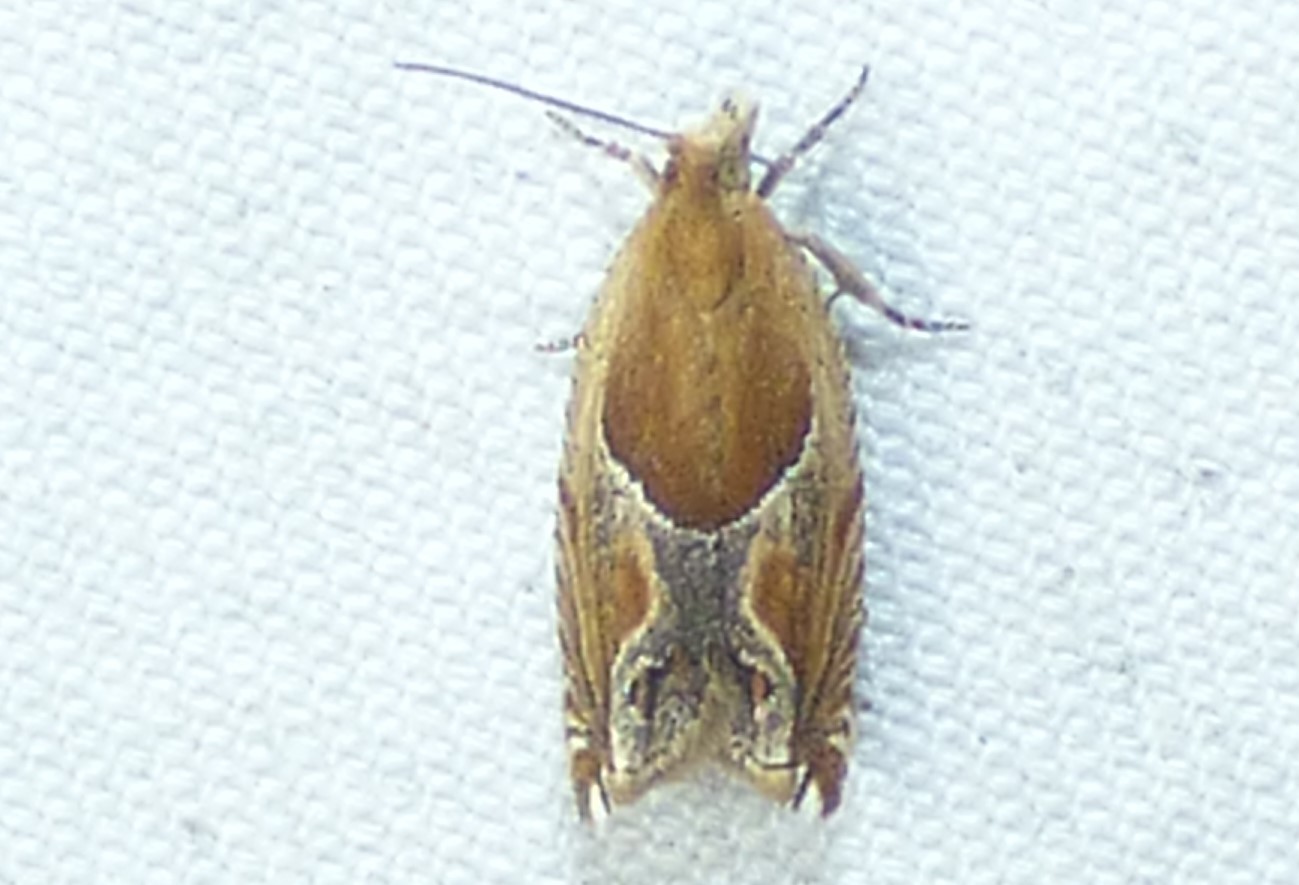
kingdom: Animalia
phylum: Arthropoda
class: Insecta
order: Lepidoptera
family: Tortricidae
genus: Ancylis
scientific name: Ancylis comptana
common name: Little roller
